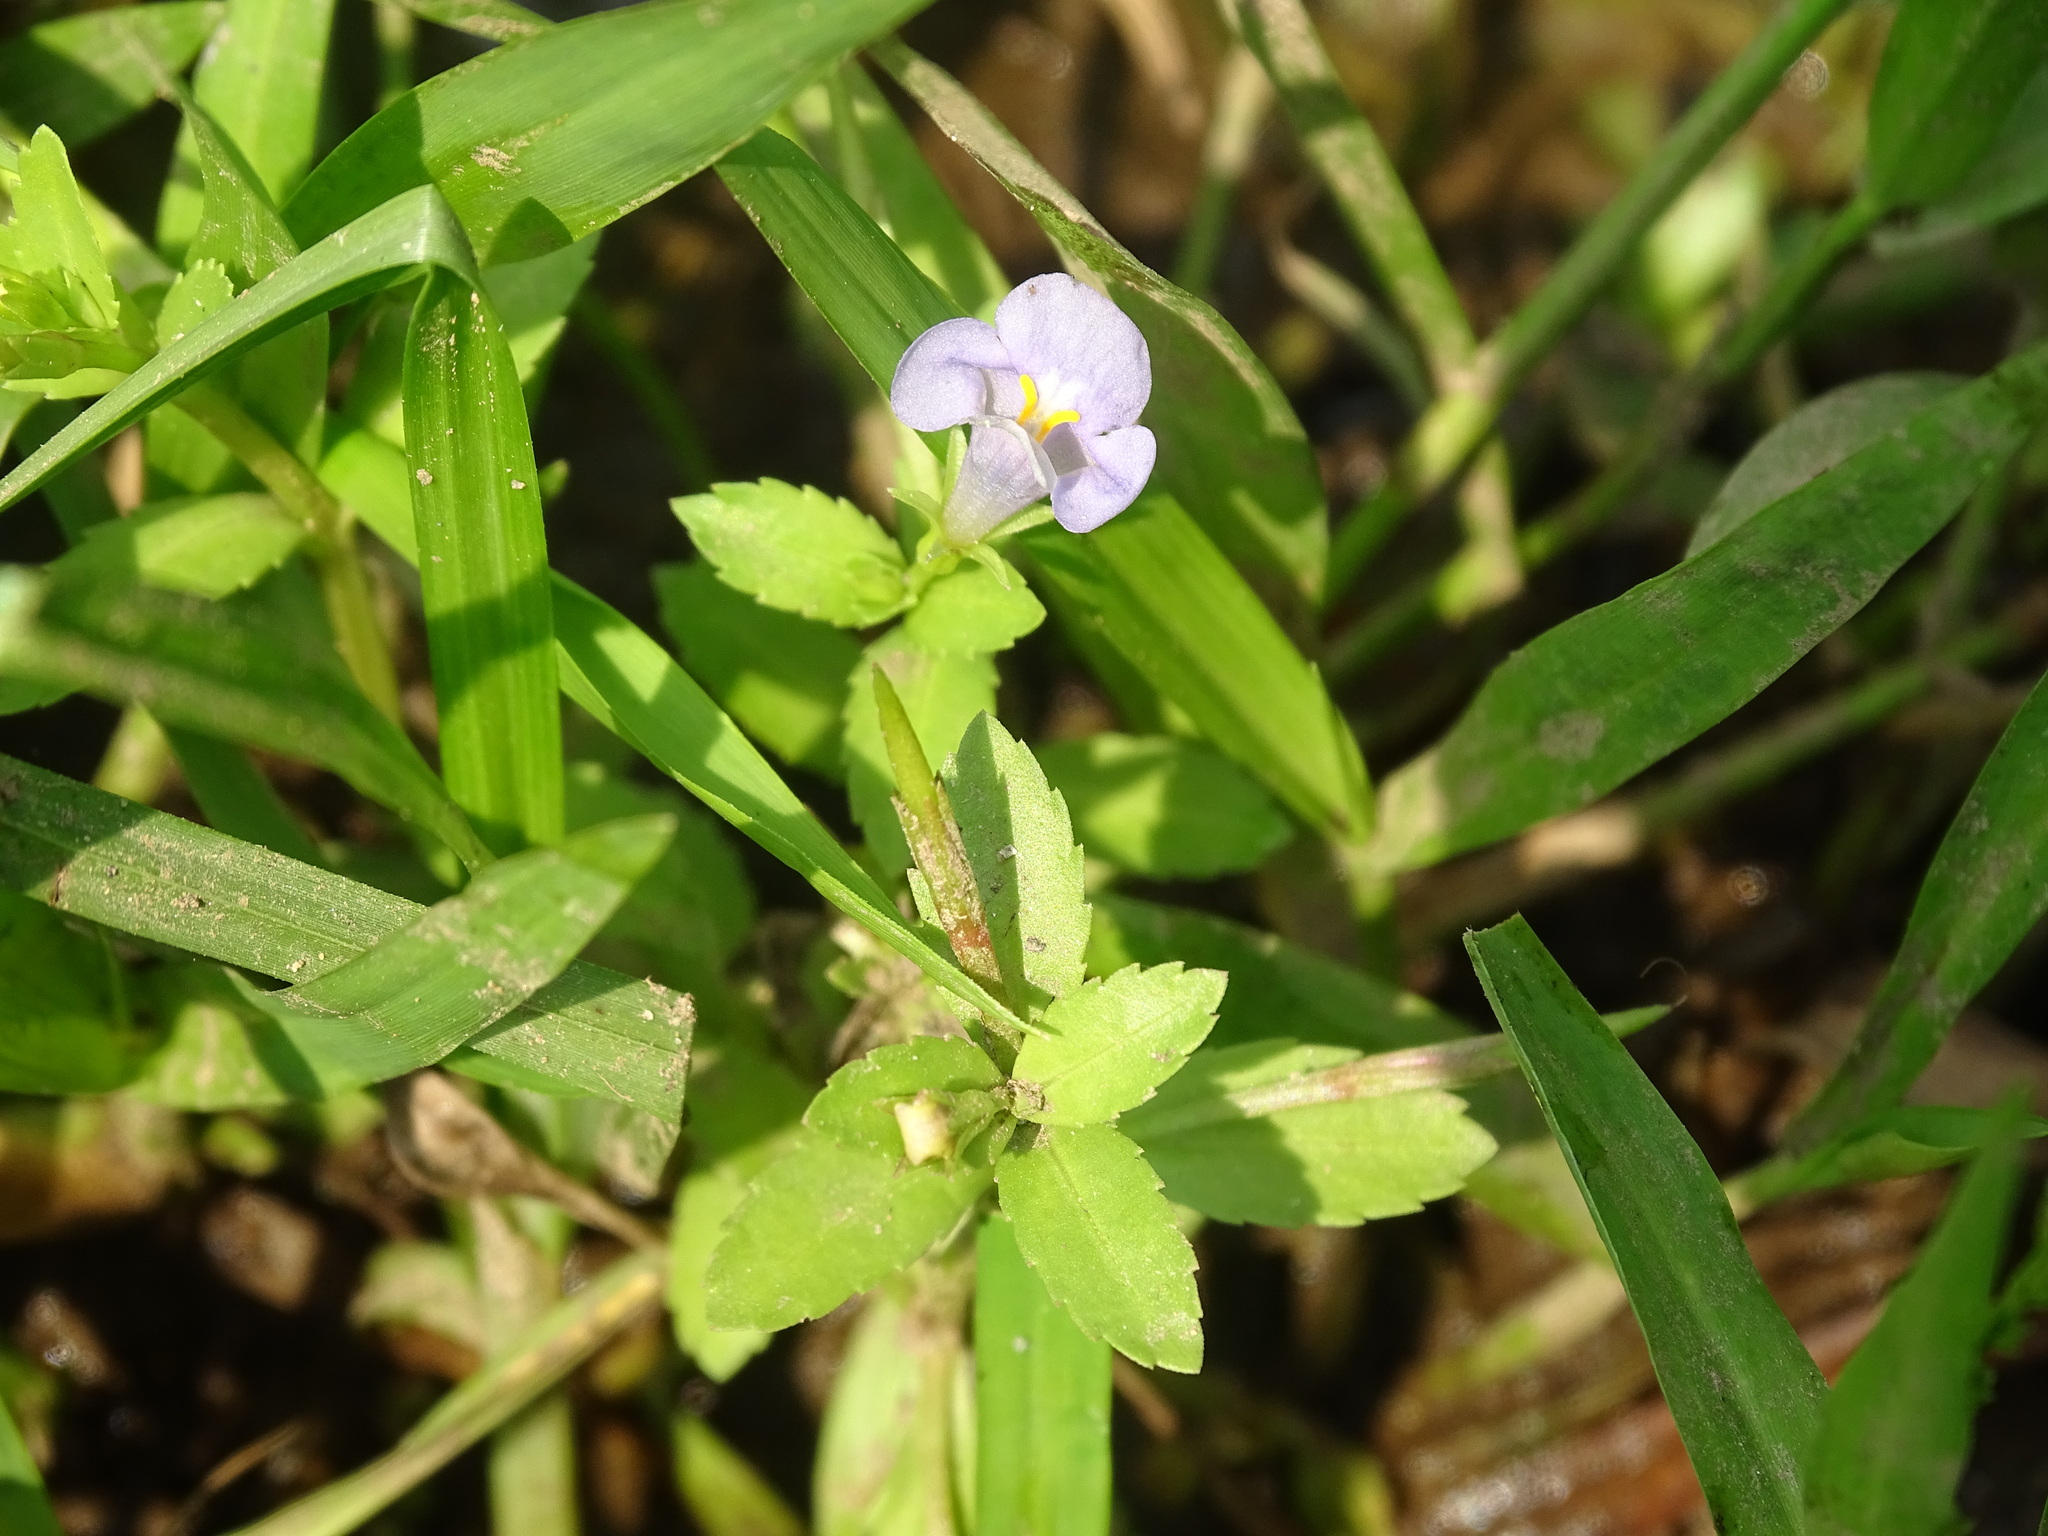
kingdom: Plantae
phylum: Tracheophyta
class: Magnoliopsida
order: Lamiales
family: Linderniaceae
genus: Bonnaya
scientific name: Bonnaya antipoda
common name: Sparrow false pimpernel
